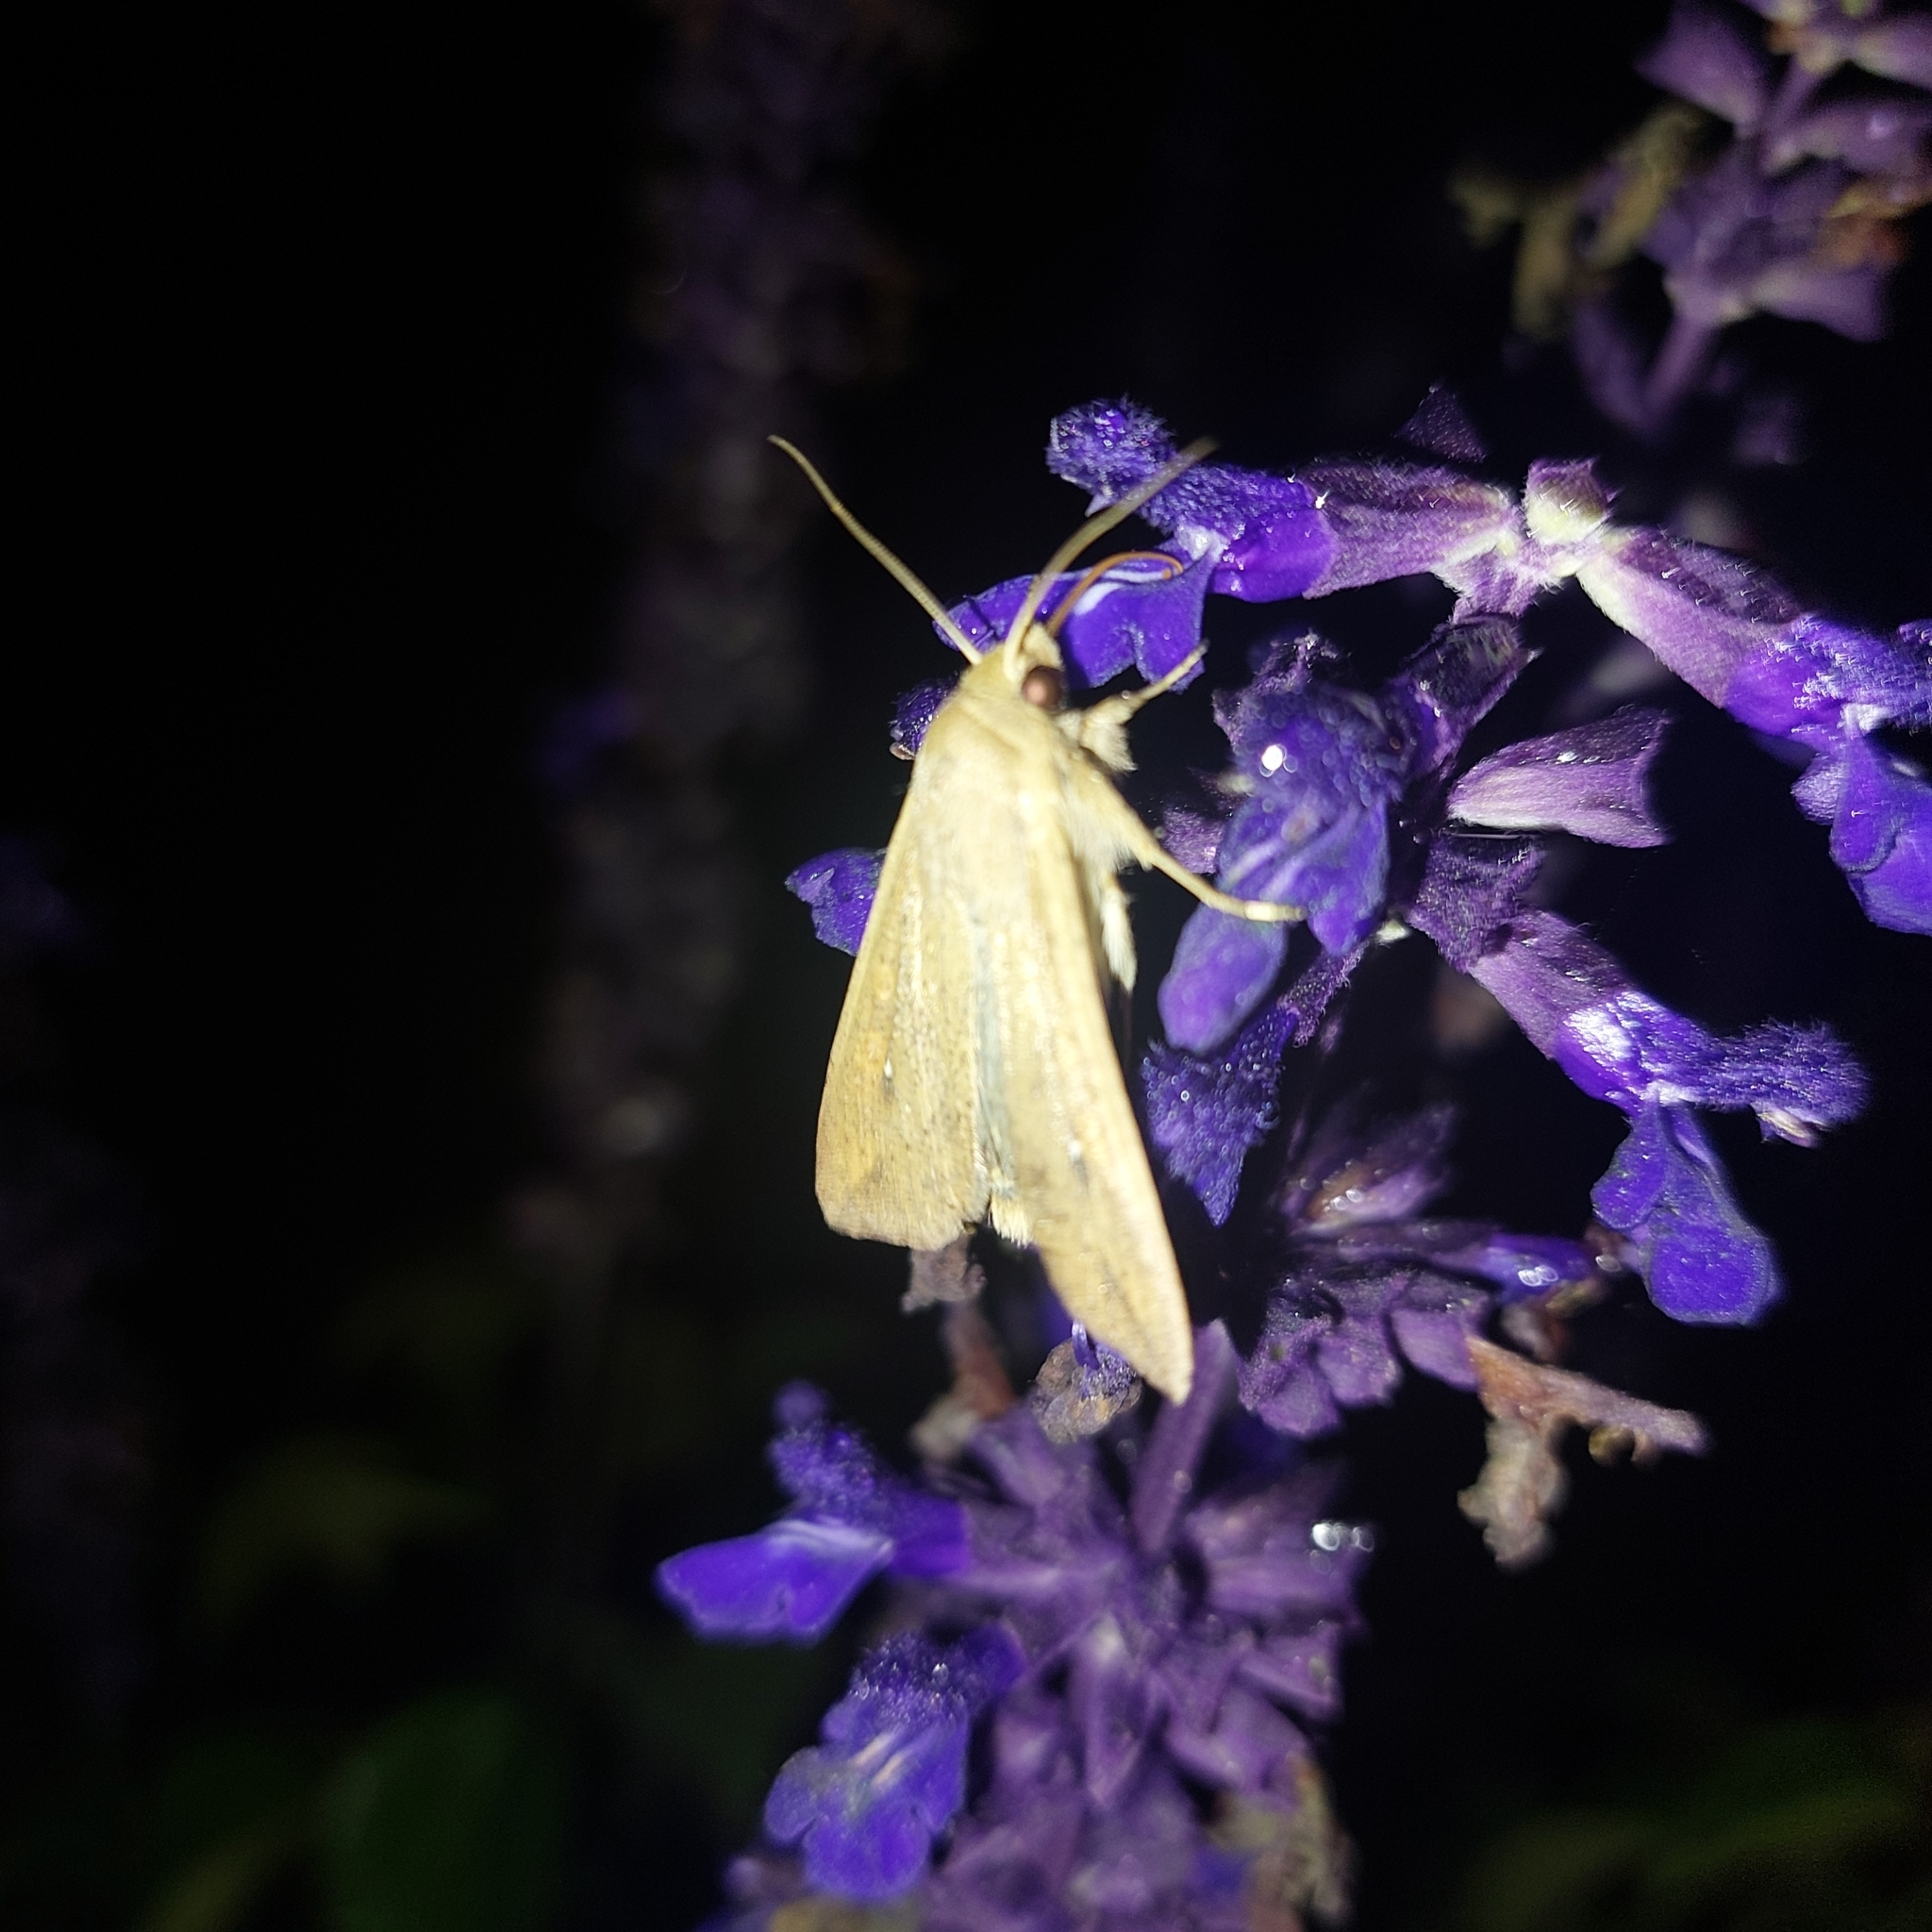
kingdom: Animalia
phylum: Arthropoda
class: Insecta
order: Lepidoptera
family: Noctuidae
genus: Mythimna
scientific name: Mythimna unipuncta
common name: White-speck
